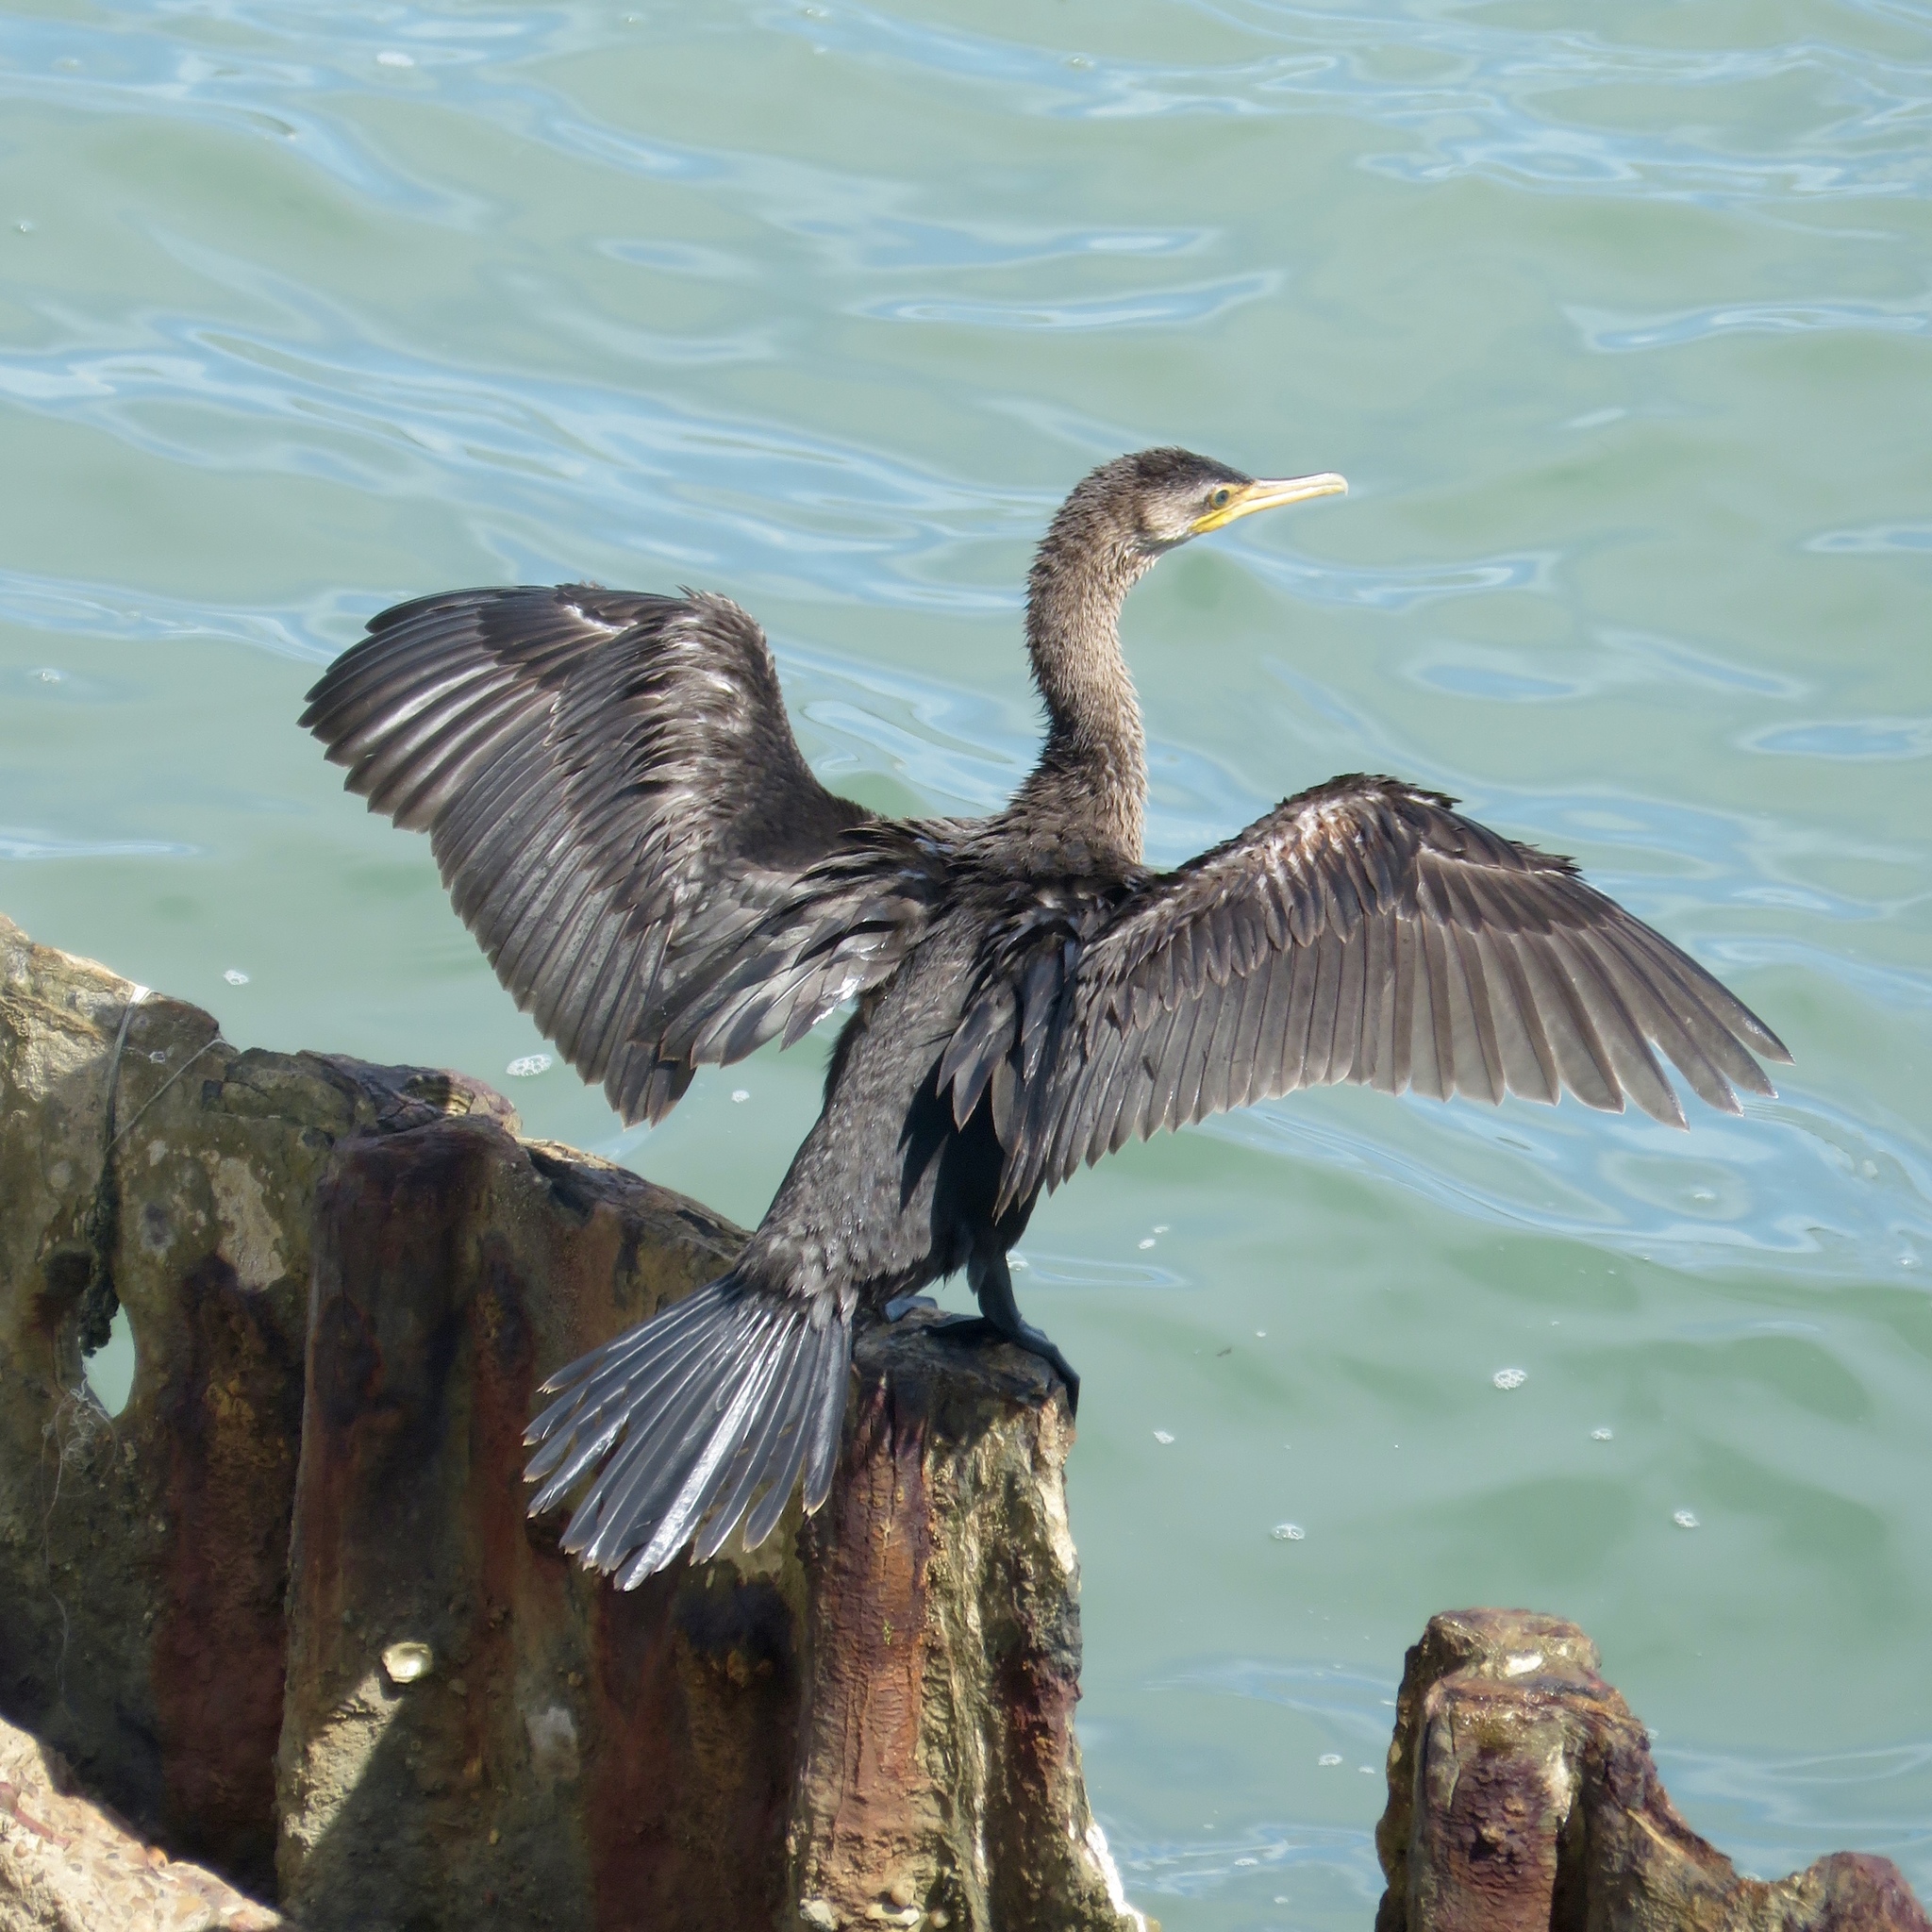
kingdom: Animalia
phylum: Chordata
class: Aves
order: Suliformes
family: Phalacrocoracidae
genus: Phalacrocorax
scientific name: Phalacrocorax auritus
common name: Double-crested cormorant
